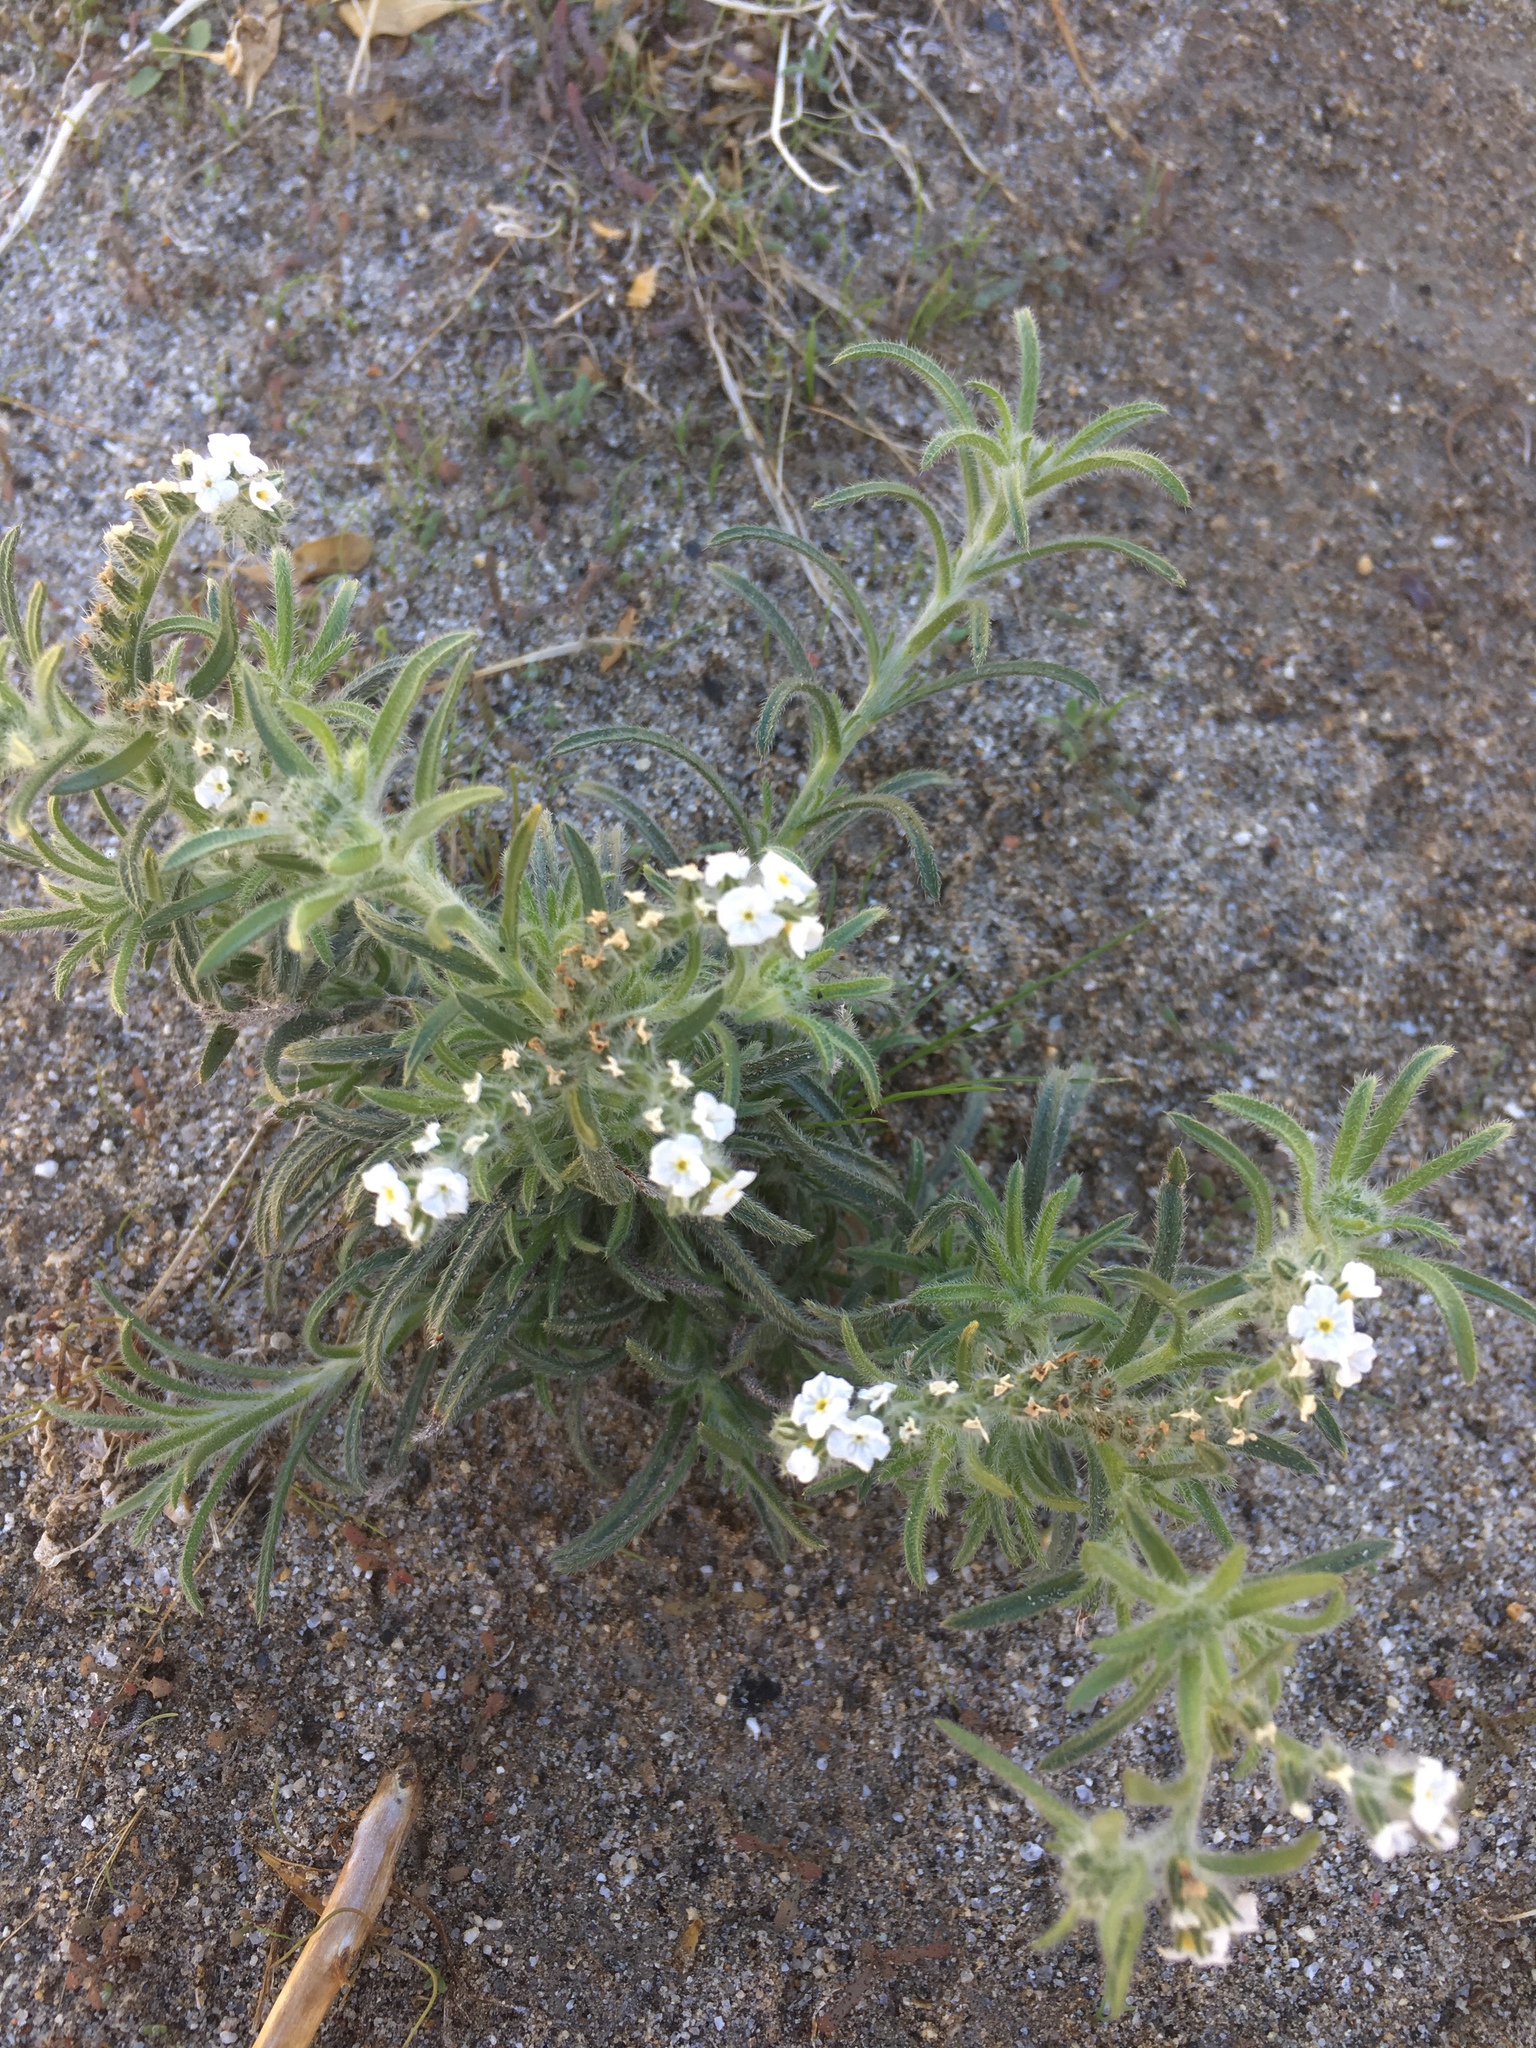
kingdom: Plantae
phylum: Tracheophyta
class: Magnoliopsida
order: Boraginales
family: Boraginaceae
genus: Johnstonella
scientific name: Johnstonella angustifolia
